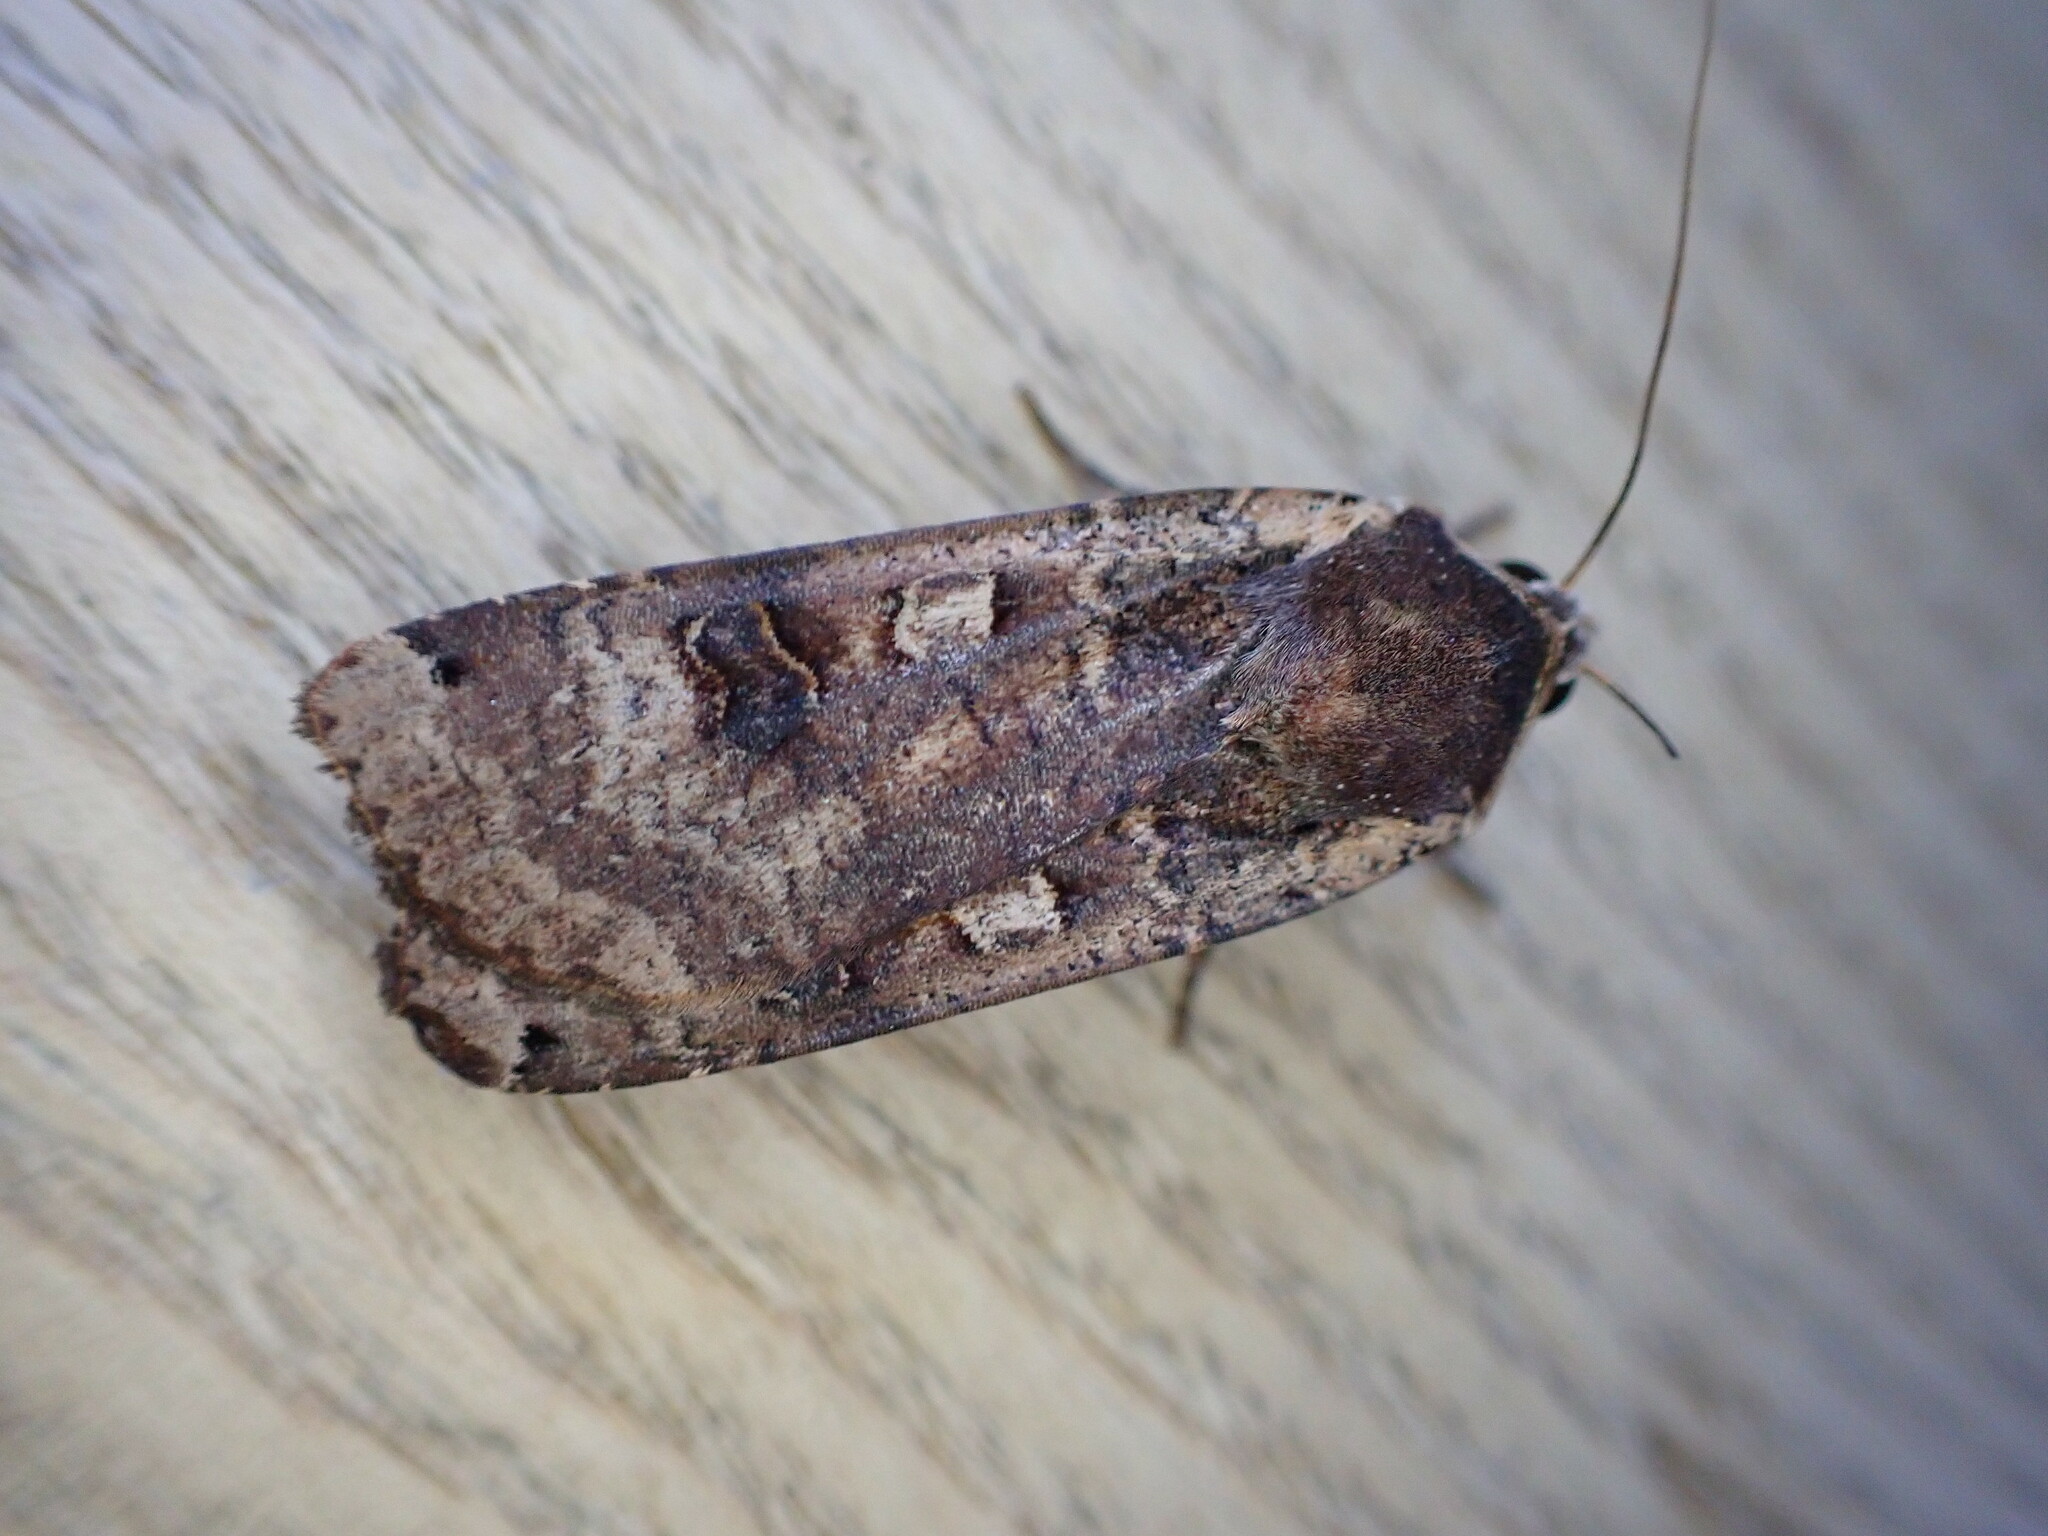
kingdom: Animalia
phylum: Arthropoda
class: Insecta
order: Lepidoptera
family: Noctuidae
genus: Noctua
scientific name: Noctua pronuba
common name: Large yellow underwing
